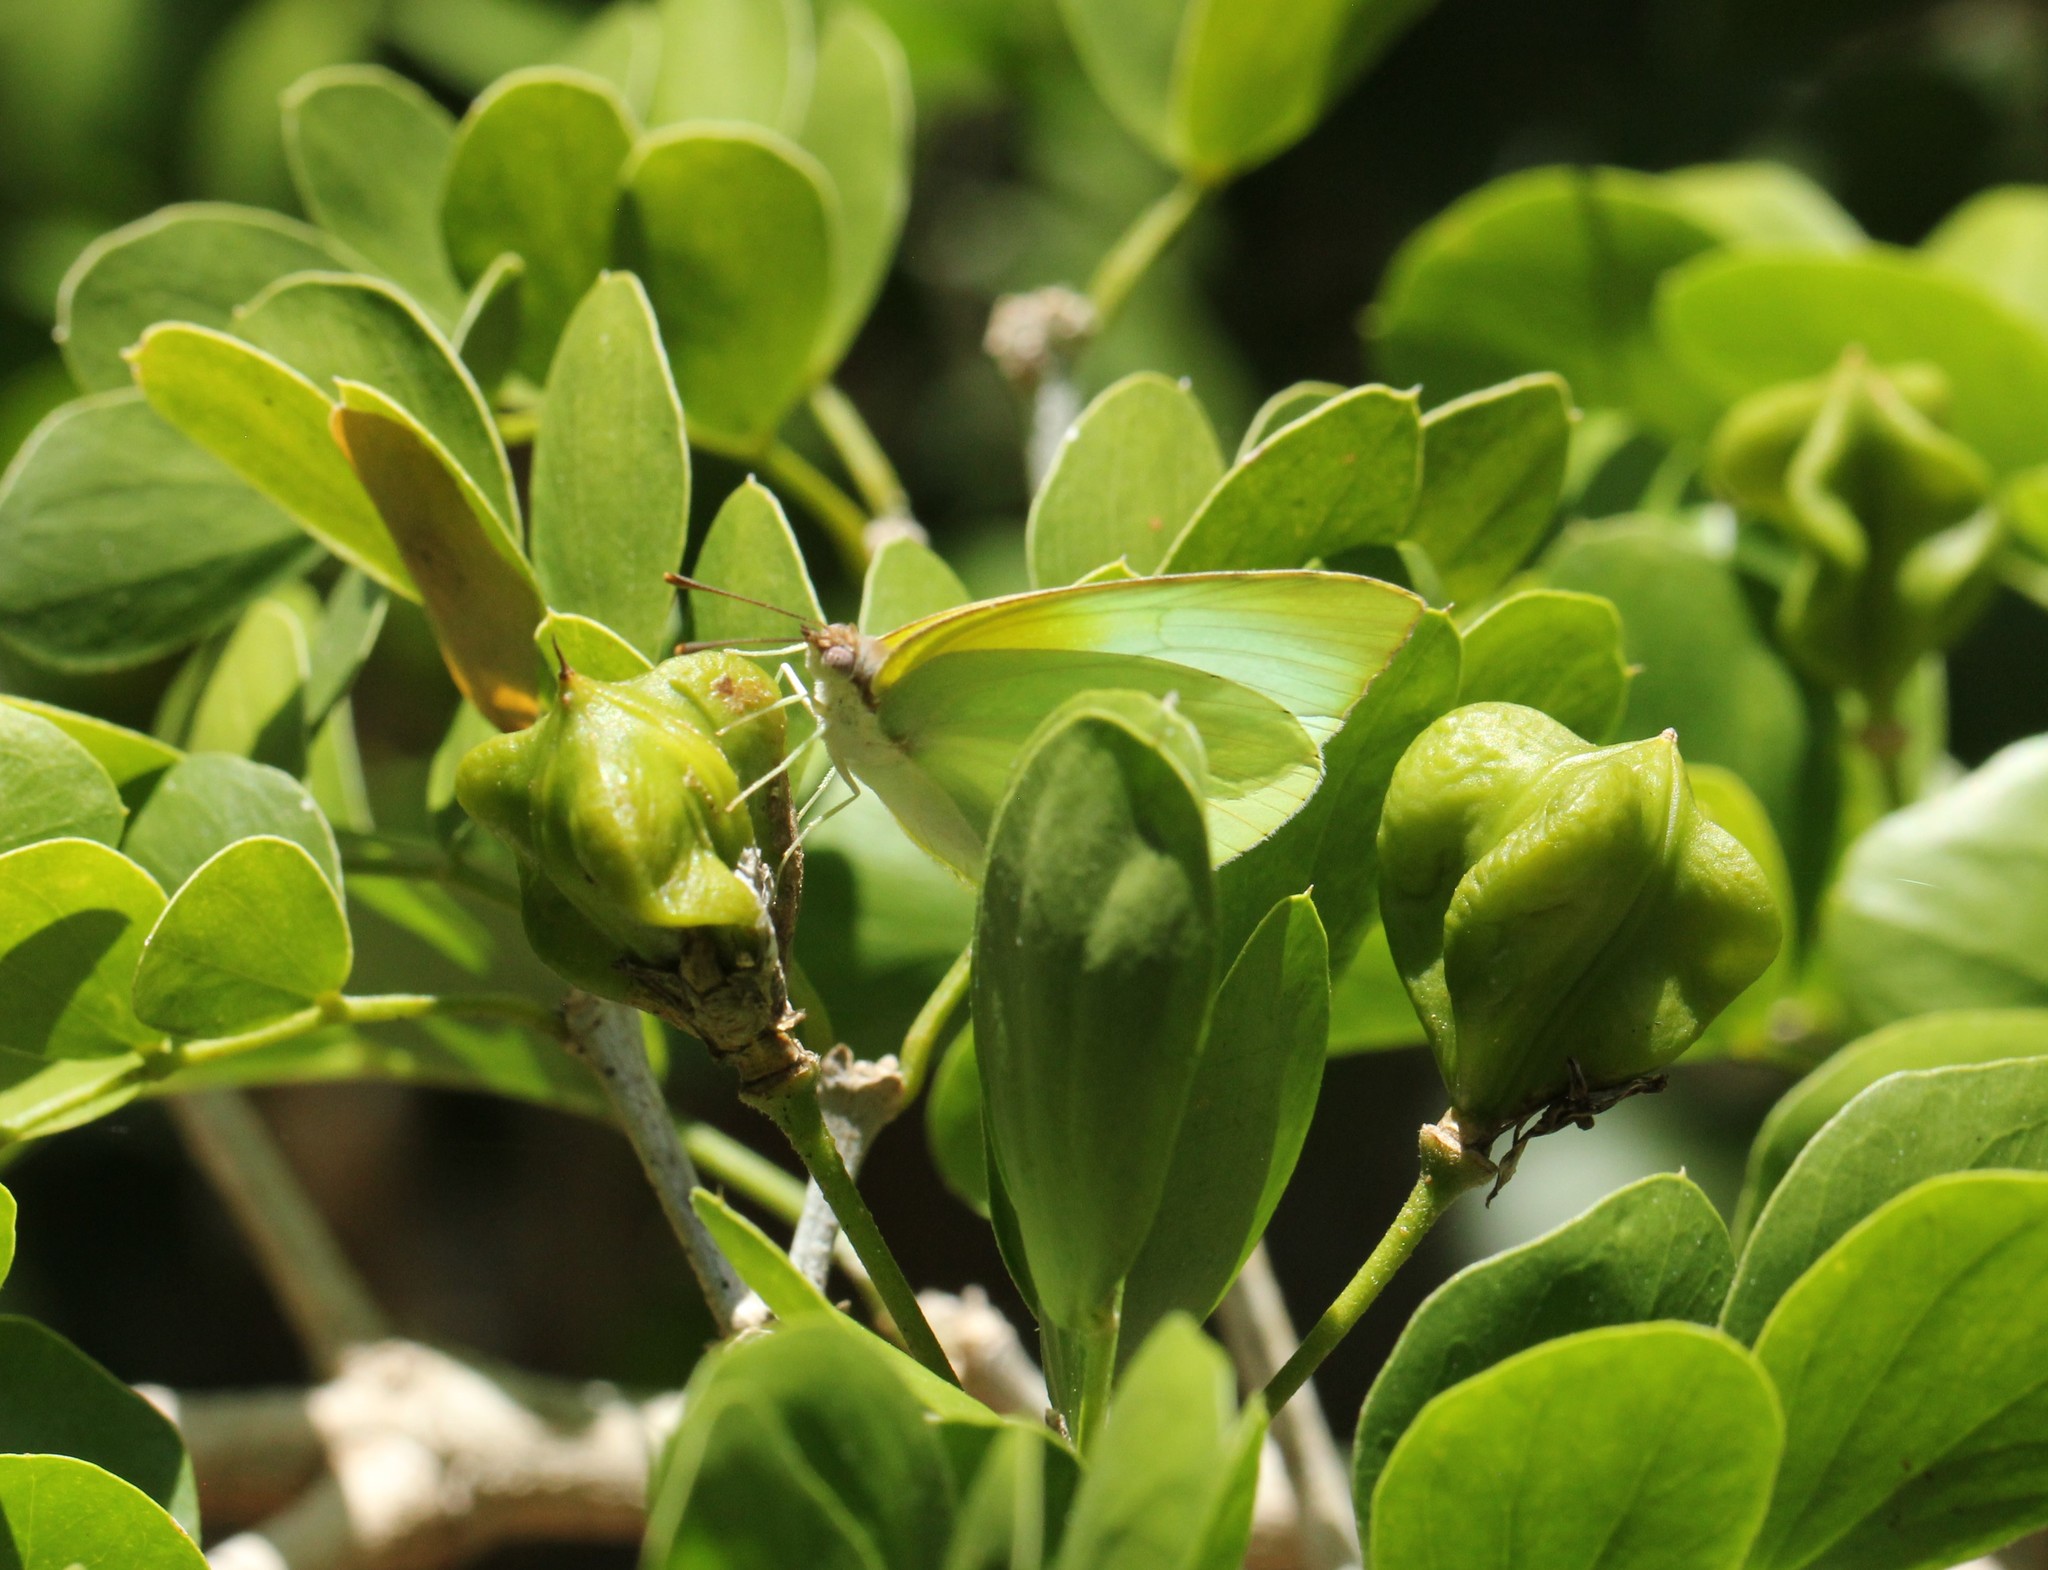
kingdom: Animalia
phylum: Arthropoda
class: Insecta
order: Lepidoptera
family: Pieridae
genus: Kricogonia
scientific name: Kricogonia lyside
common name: Guayacan sulphur,
